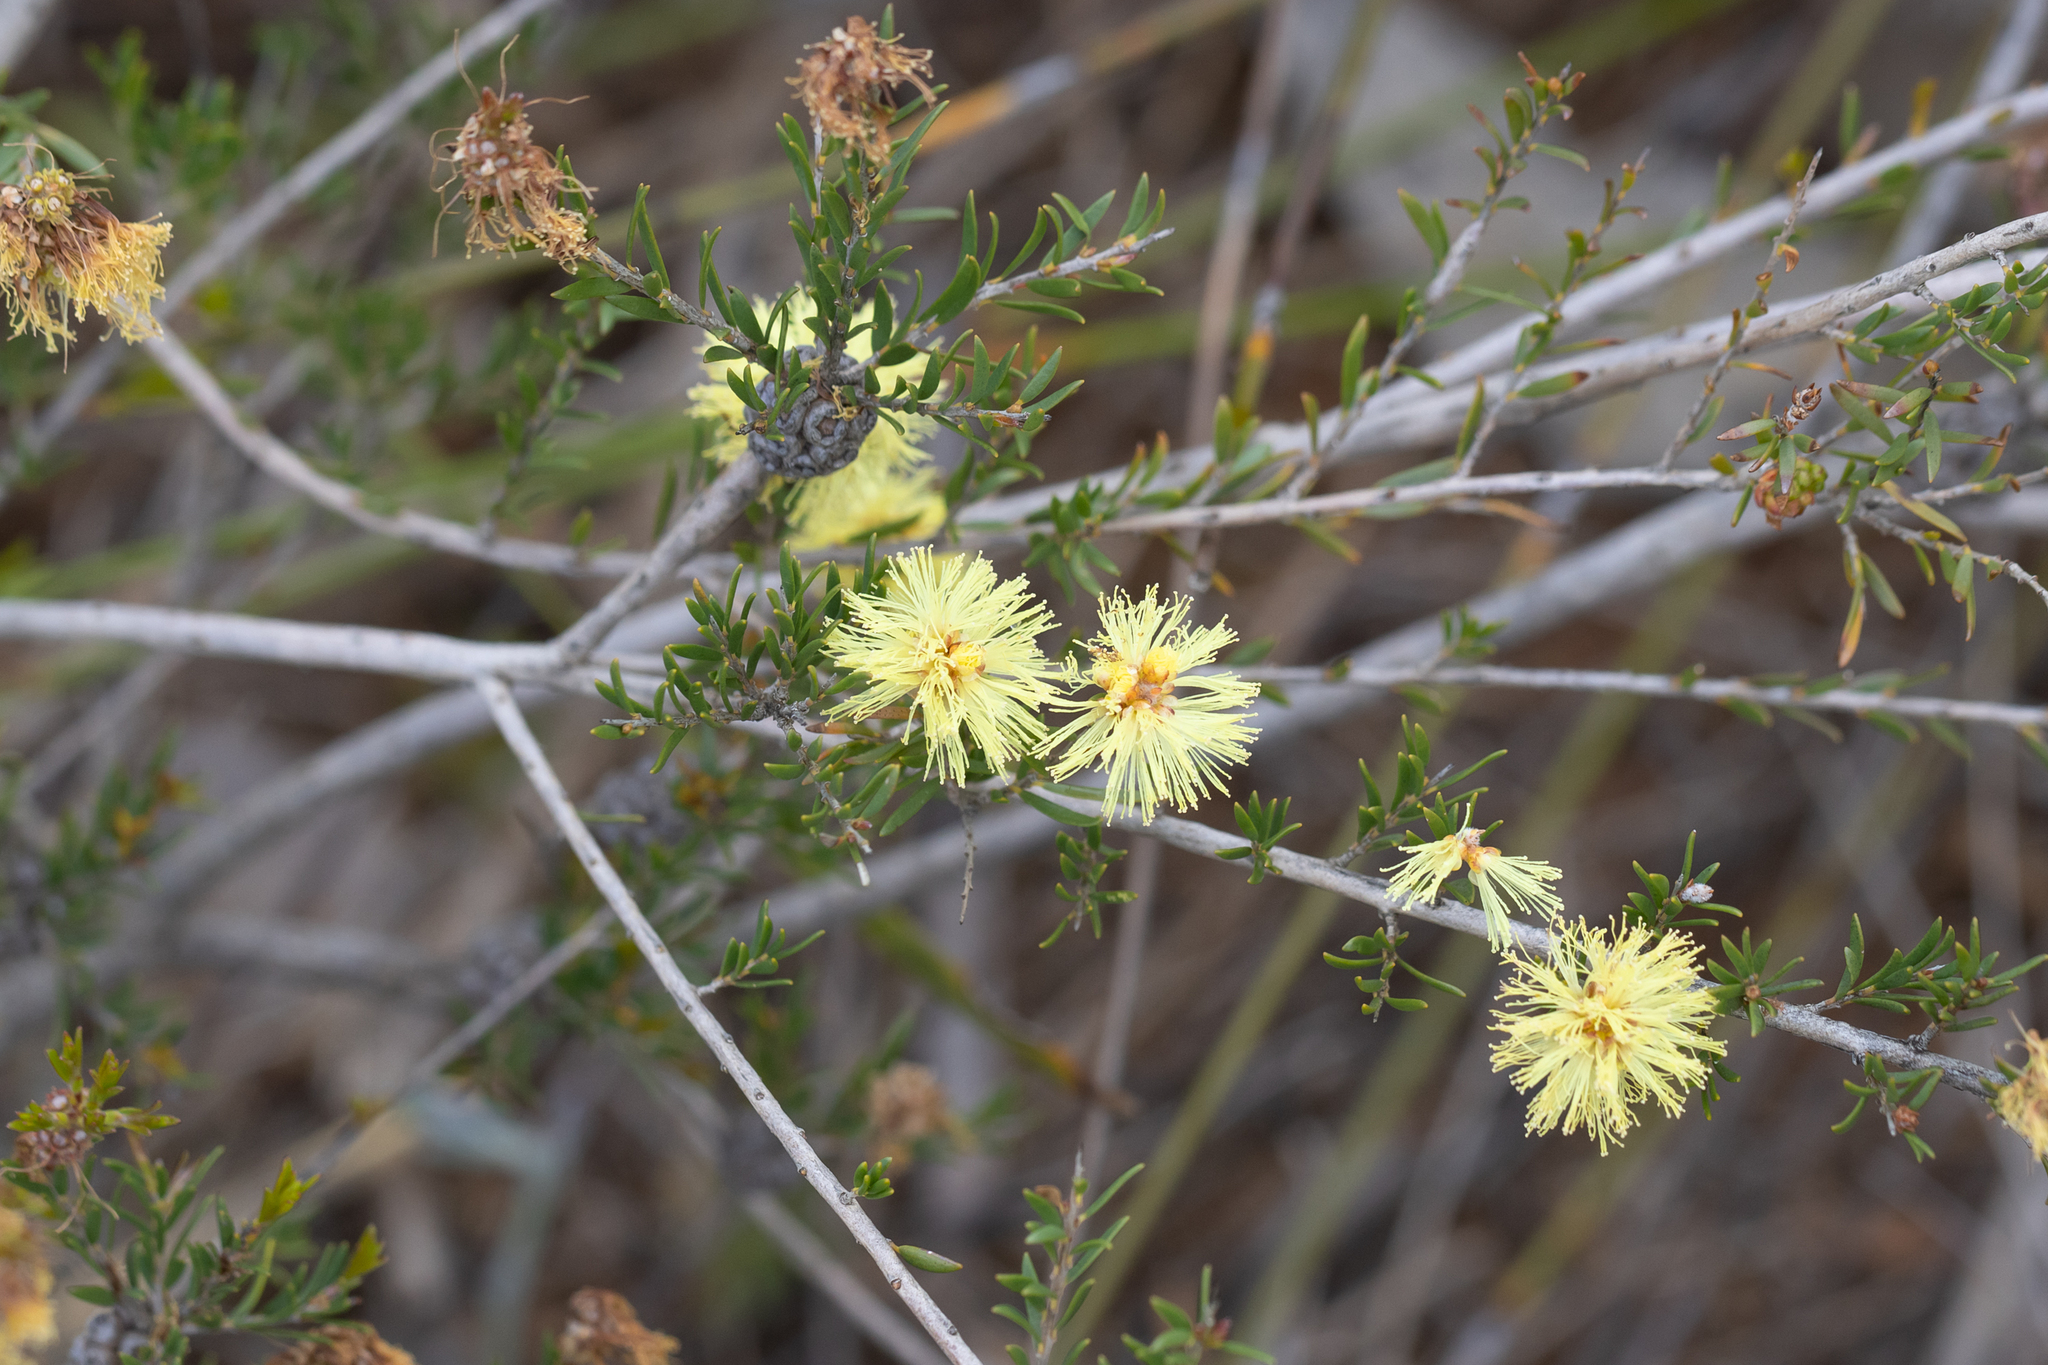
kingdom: Plantae
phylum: Tracheophyta
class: Magnoliopsida
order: Myrtales
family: Myrtaceae
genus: Melaleuca
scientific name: Melaleuca thymoides
